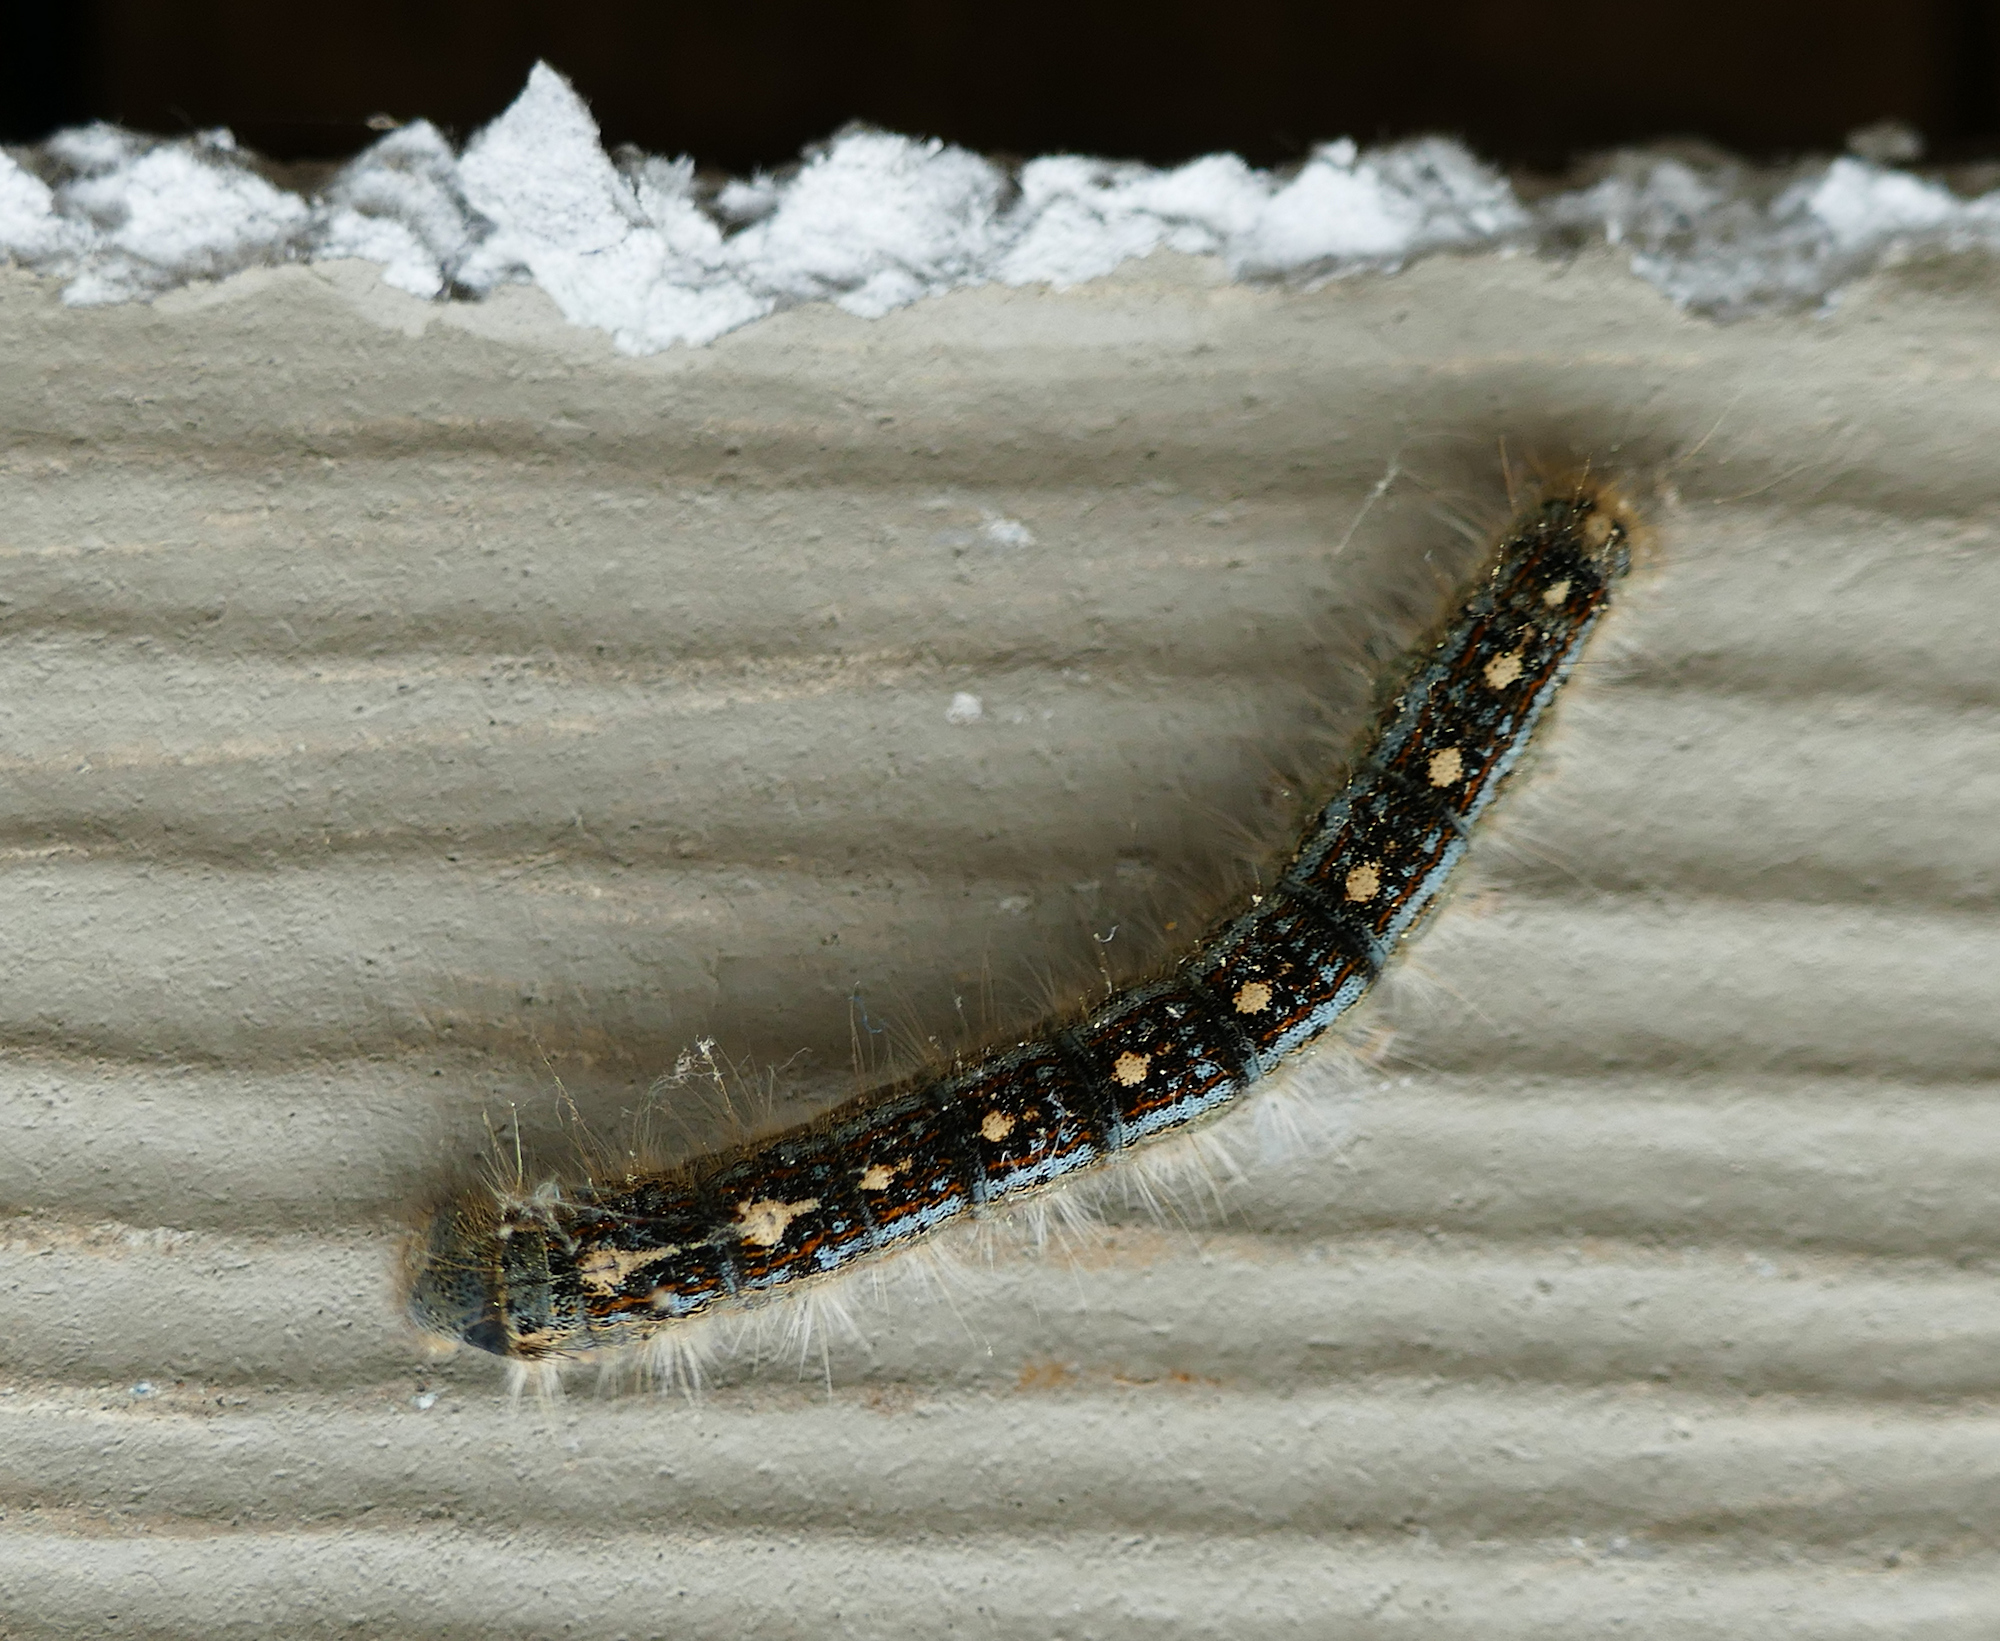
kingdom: Animalia
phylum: Arthropoda
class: Insecta
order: Lepidoptera
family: Lasiocampidae
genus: Malacosoma
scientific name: Malacosoma disstria
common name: Forest tent caterpillar
